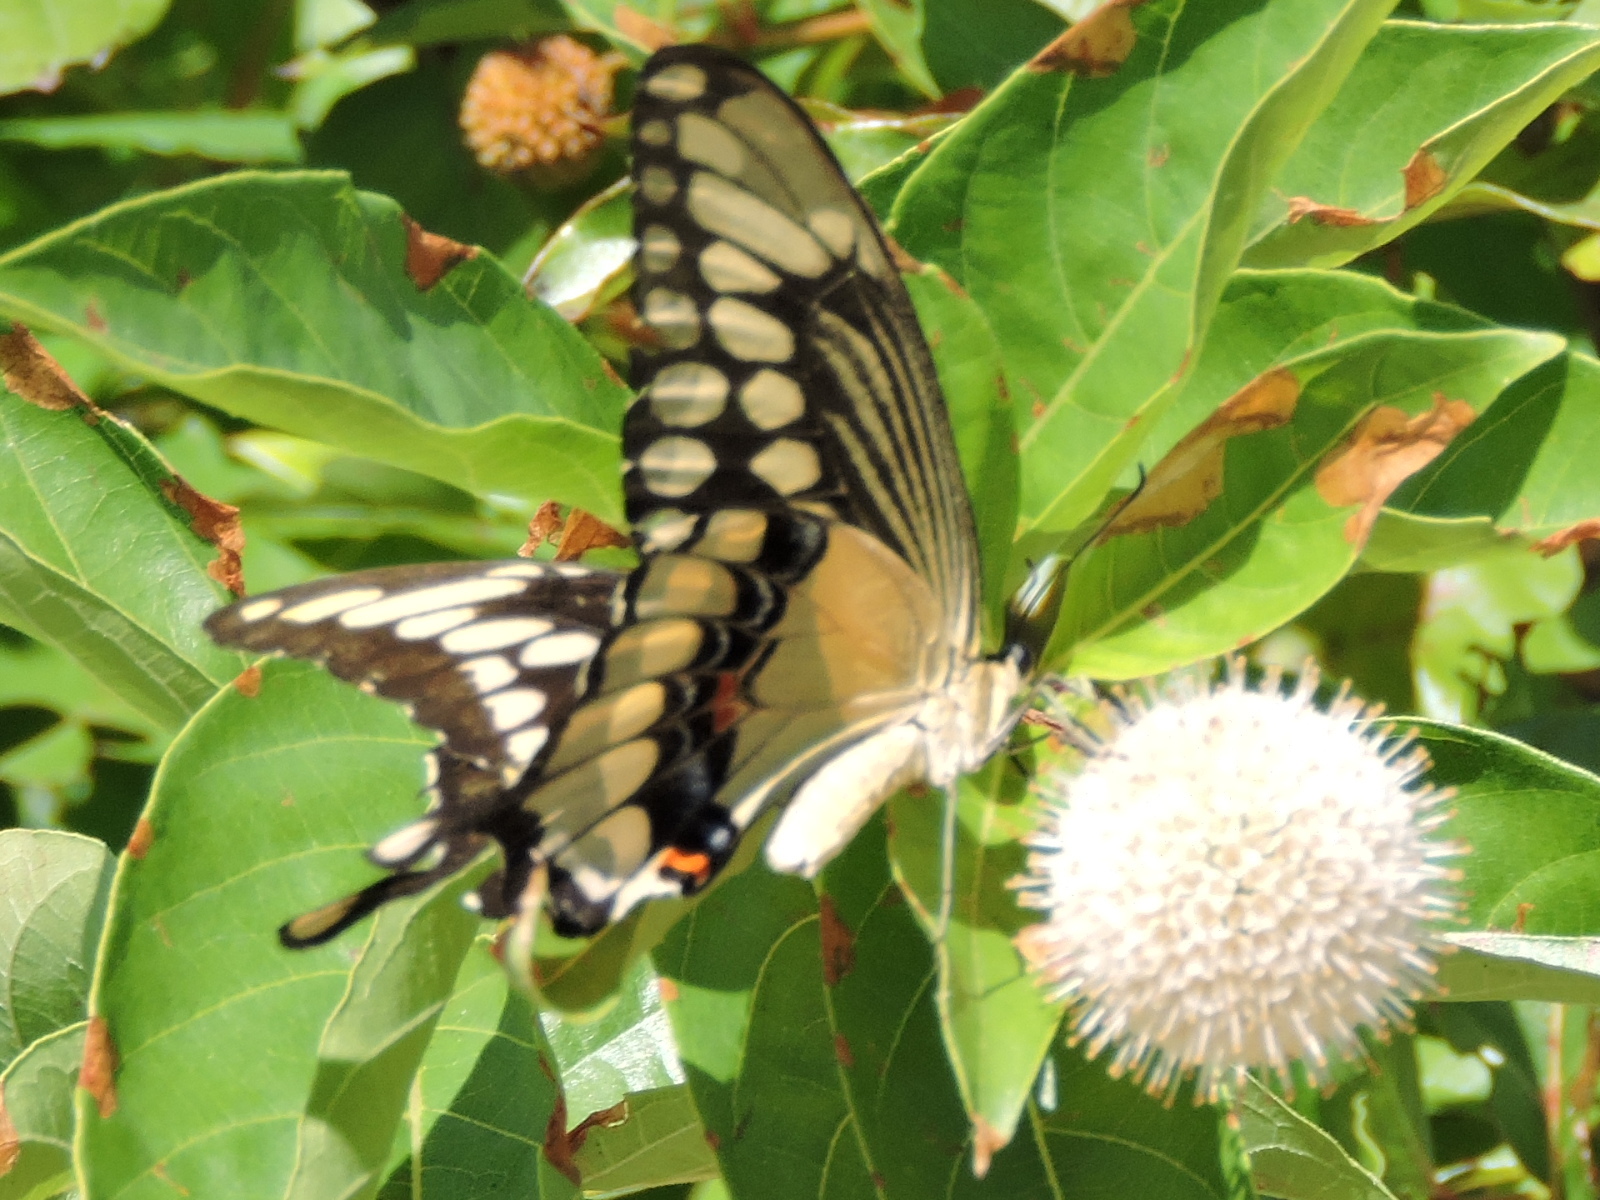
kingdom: Animalia
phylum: Arthropoda
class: Insecta
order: Lepidoptera
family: Papilionidae
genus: Papilio
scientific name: Papilio cresphontes
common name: Giant swallowtail
